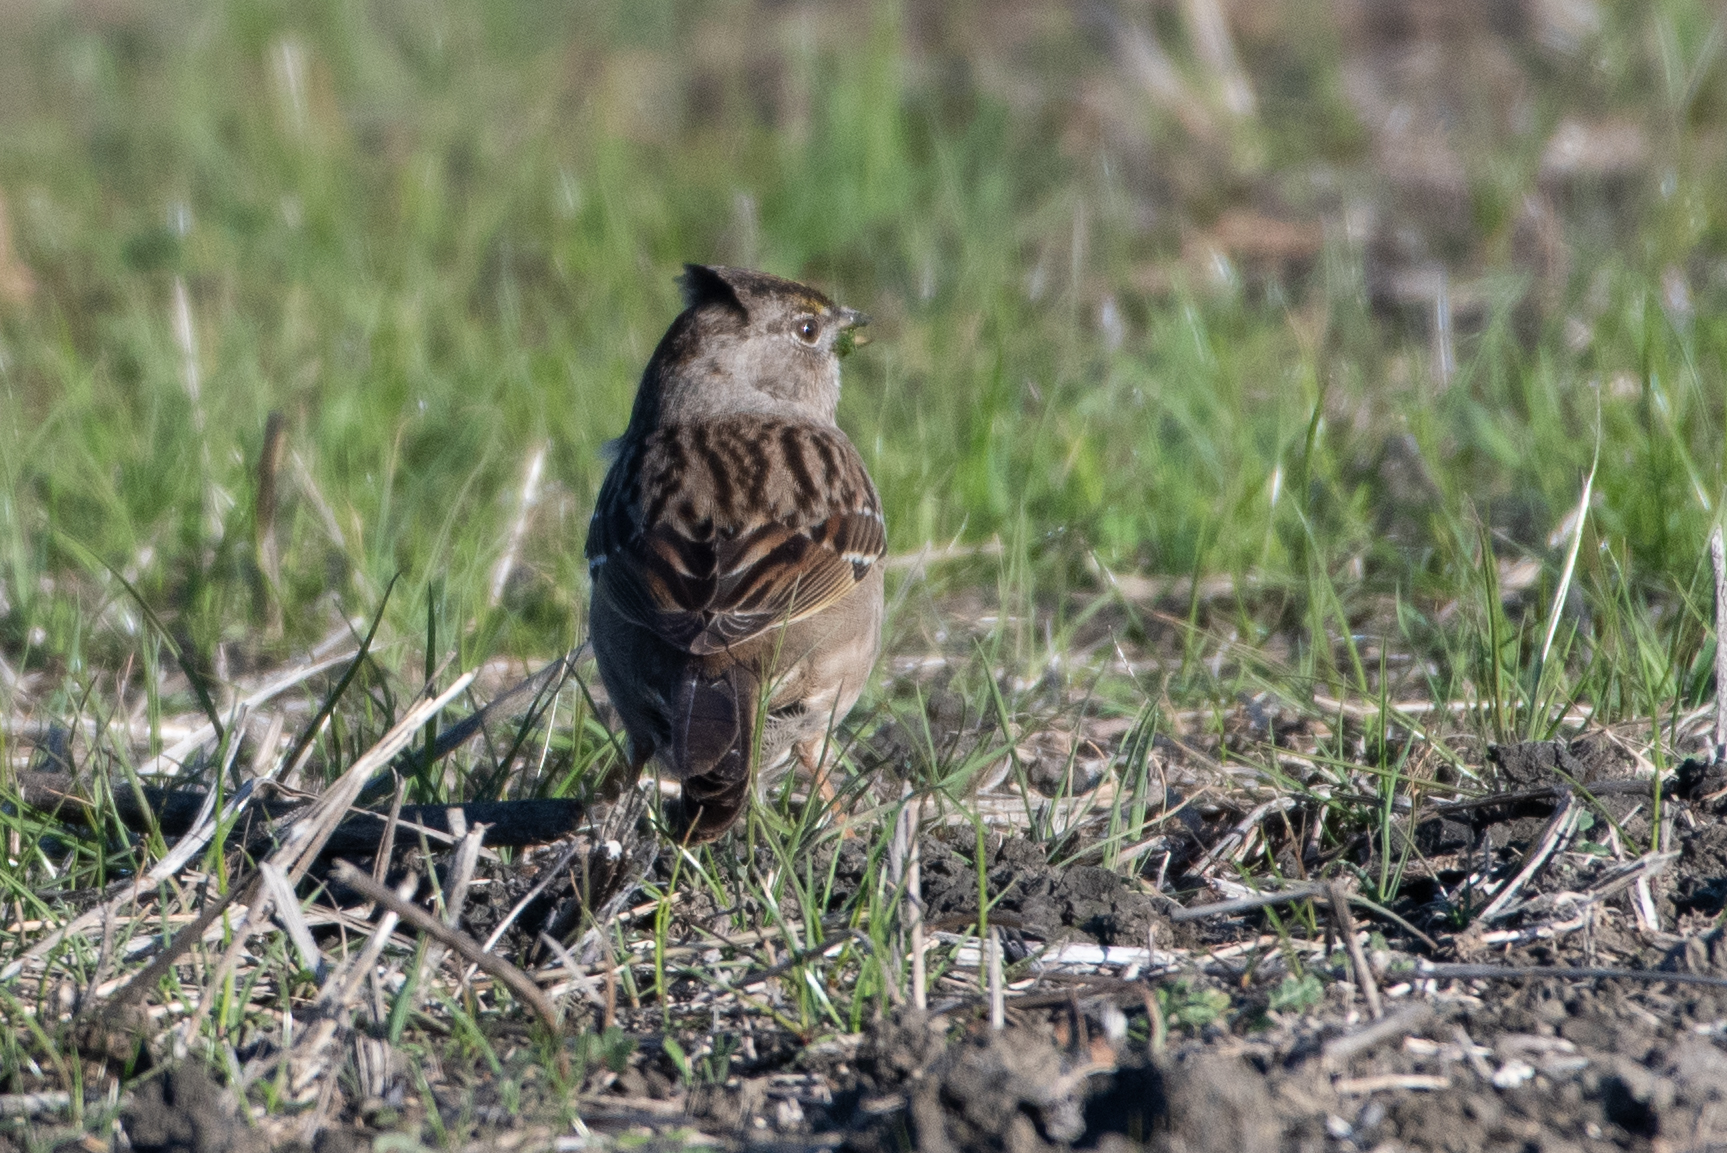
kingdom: Animalia
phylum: Chordata
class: Aves
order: Passeriformes
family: Passerellidae
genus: Zonotrichia
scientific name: Zonotrichia atricapilla
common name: Golden-crowned sparrow
